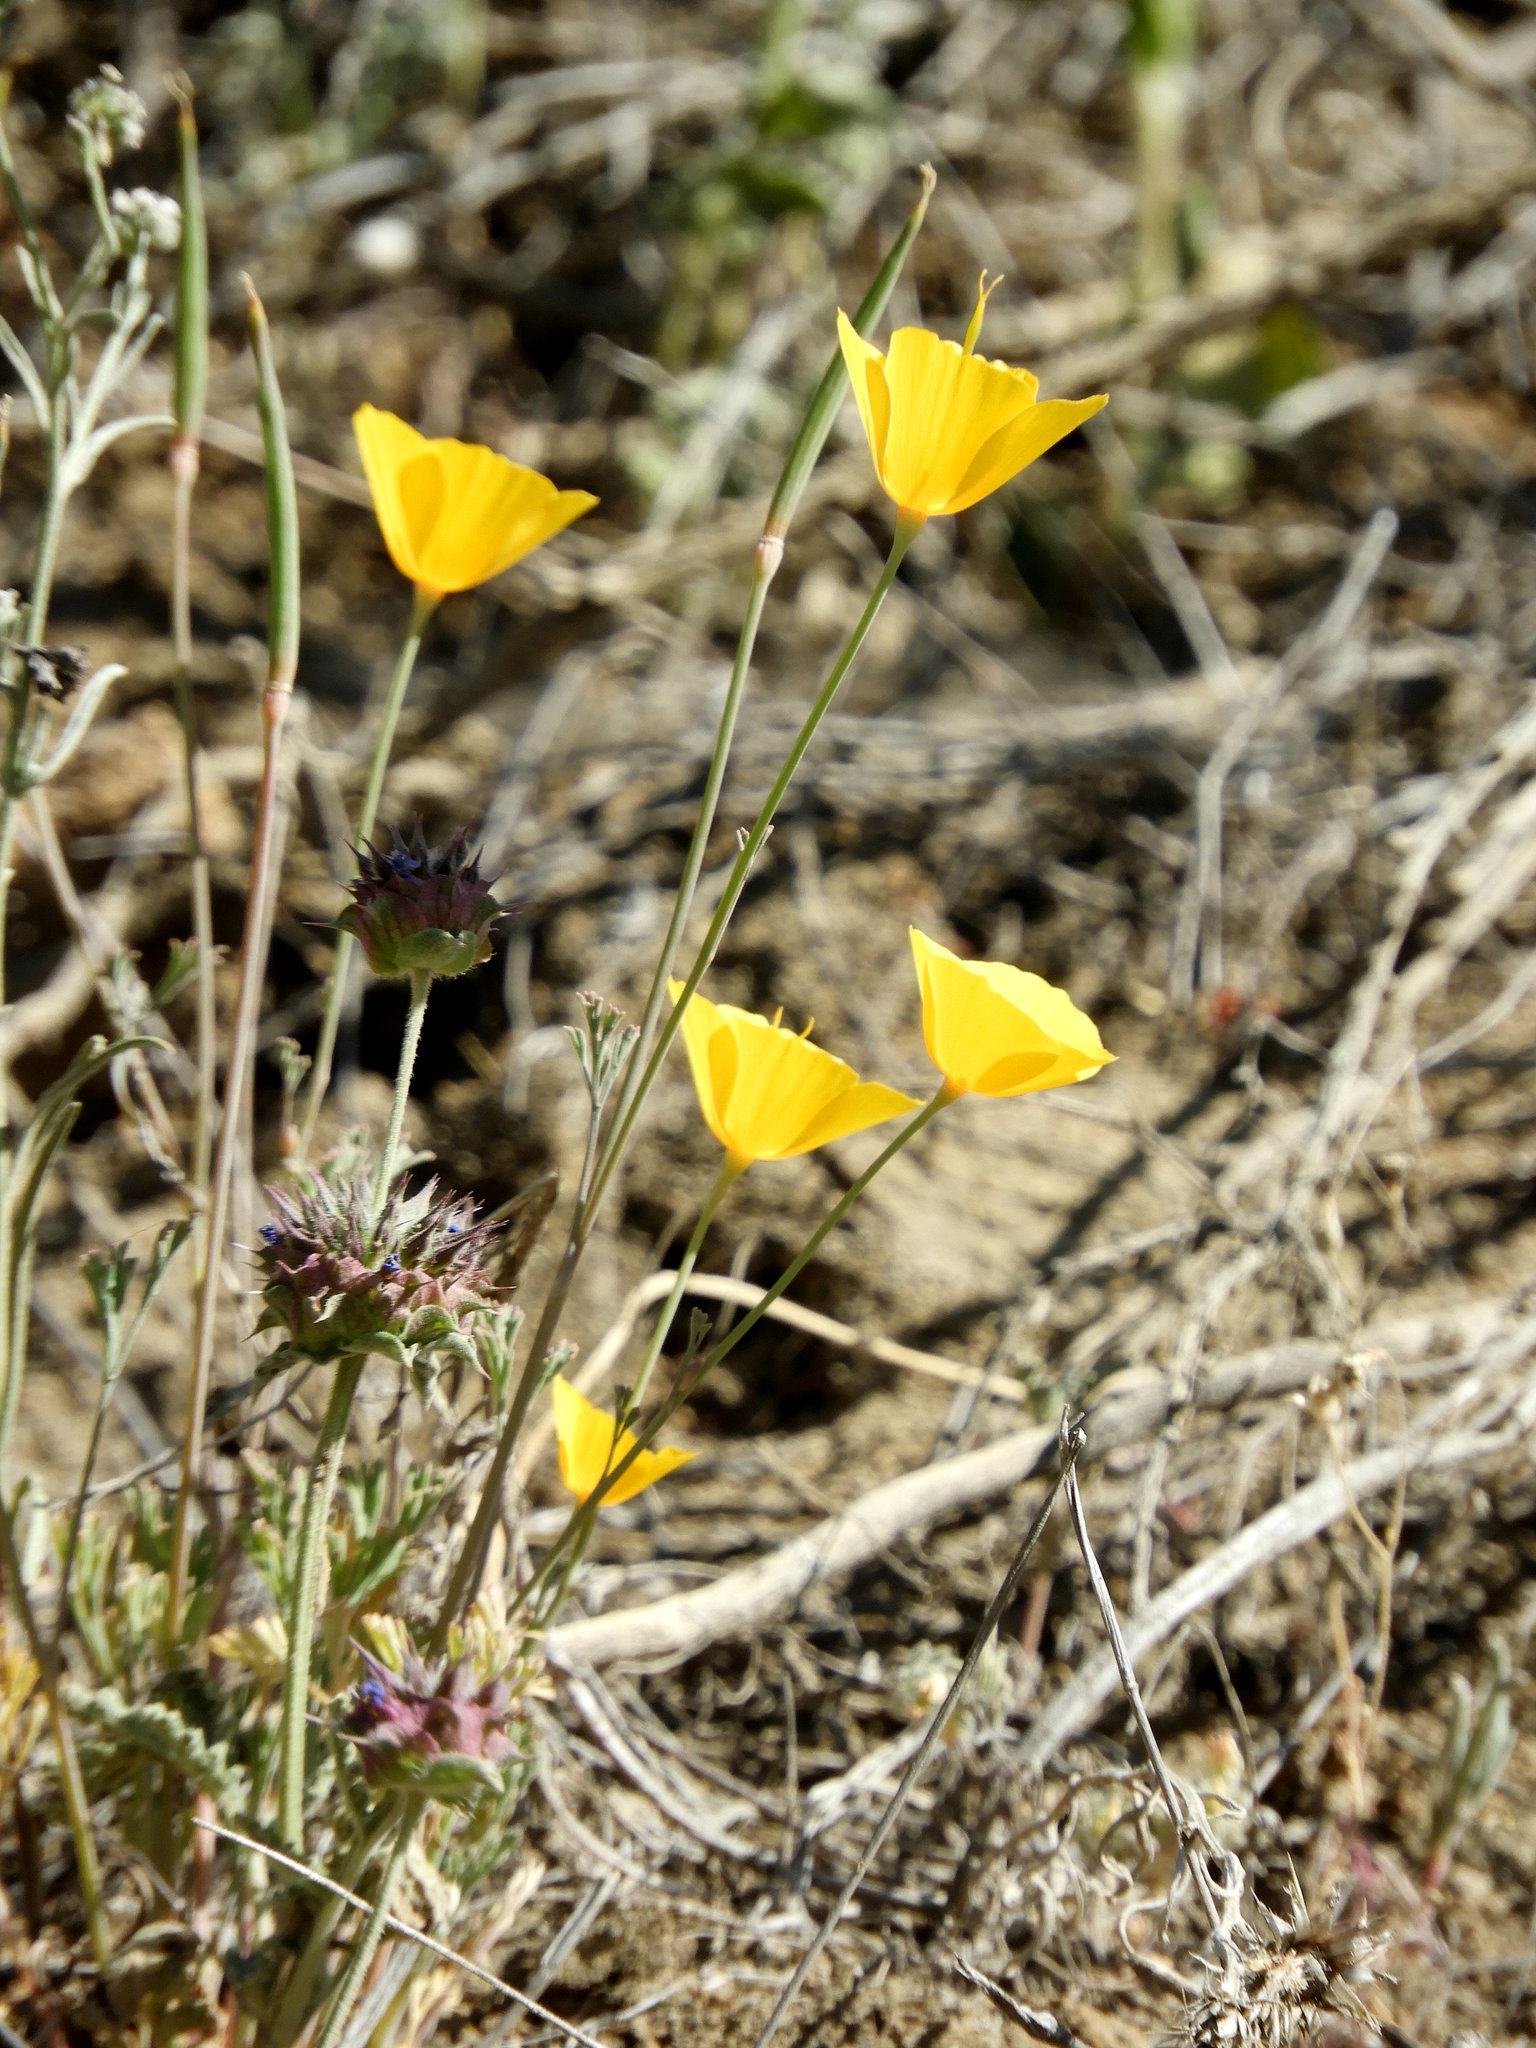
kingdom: Plantae
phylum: Tracheophyta
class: Magnoliopsida
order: Ranunculales
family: Papaveraceae
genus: Eschscholzia
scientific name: Eschscholzia caespitosa
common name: Tufted california-poppy
